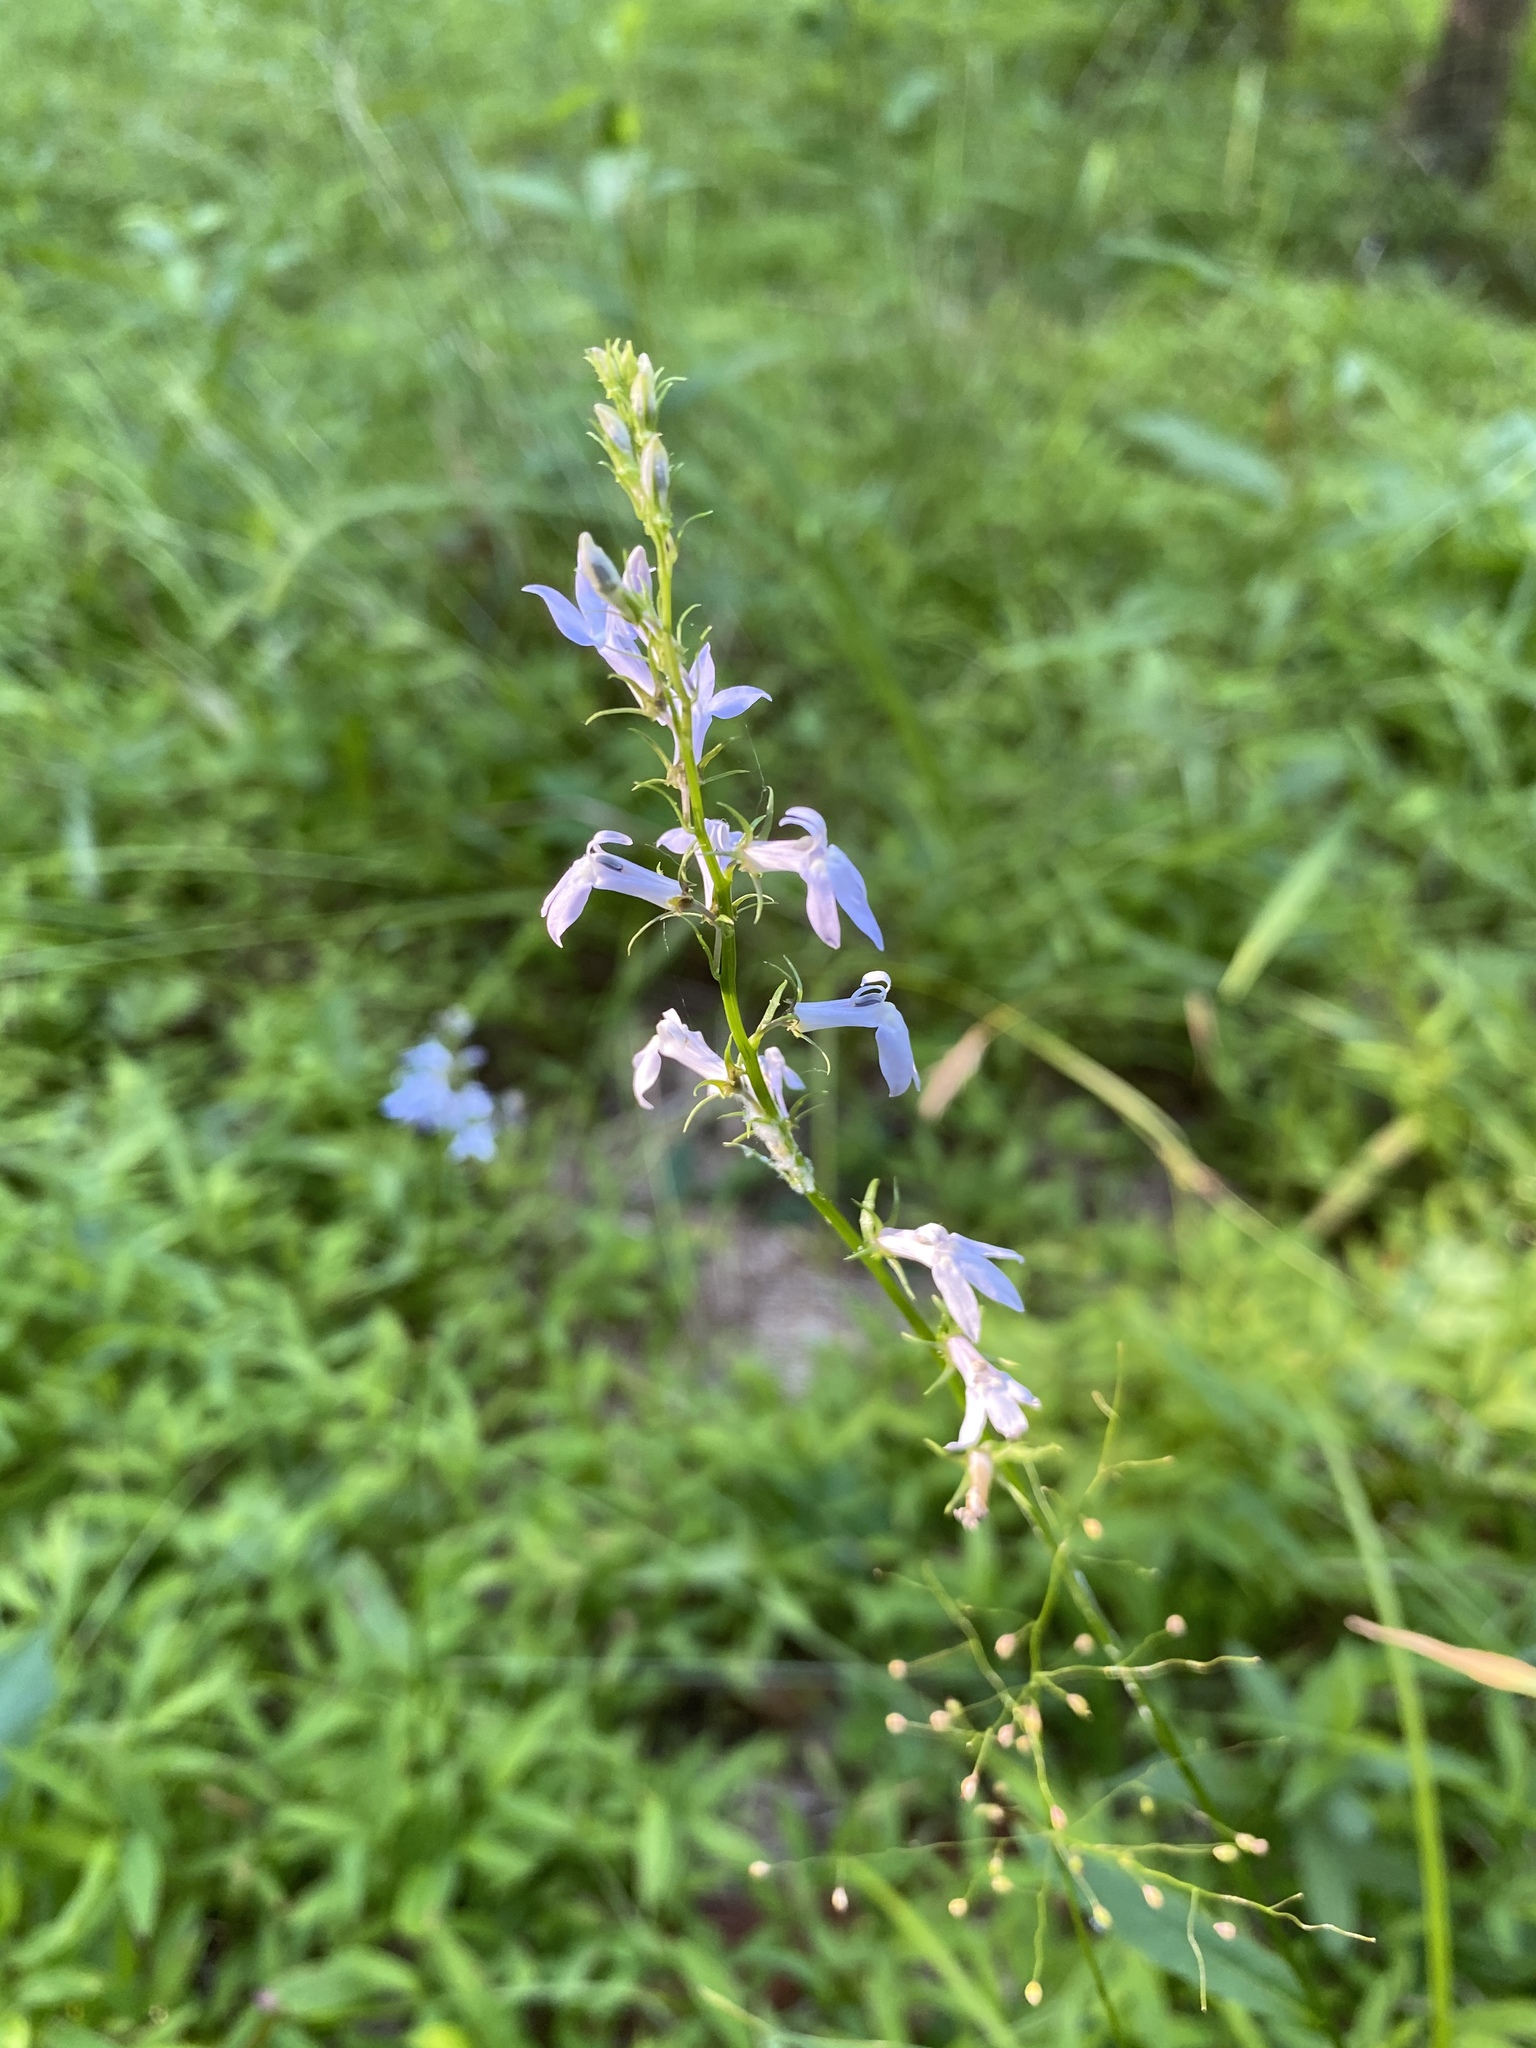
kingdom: Plantae
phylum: Tracheophyta
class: Magnoliopsida
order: Asterales
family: Campanulaceae
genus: Lobelia
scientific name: Lobelia spicata
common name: Pale-spike lobelia
